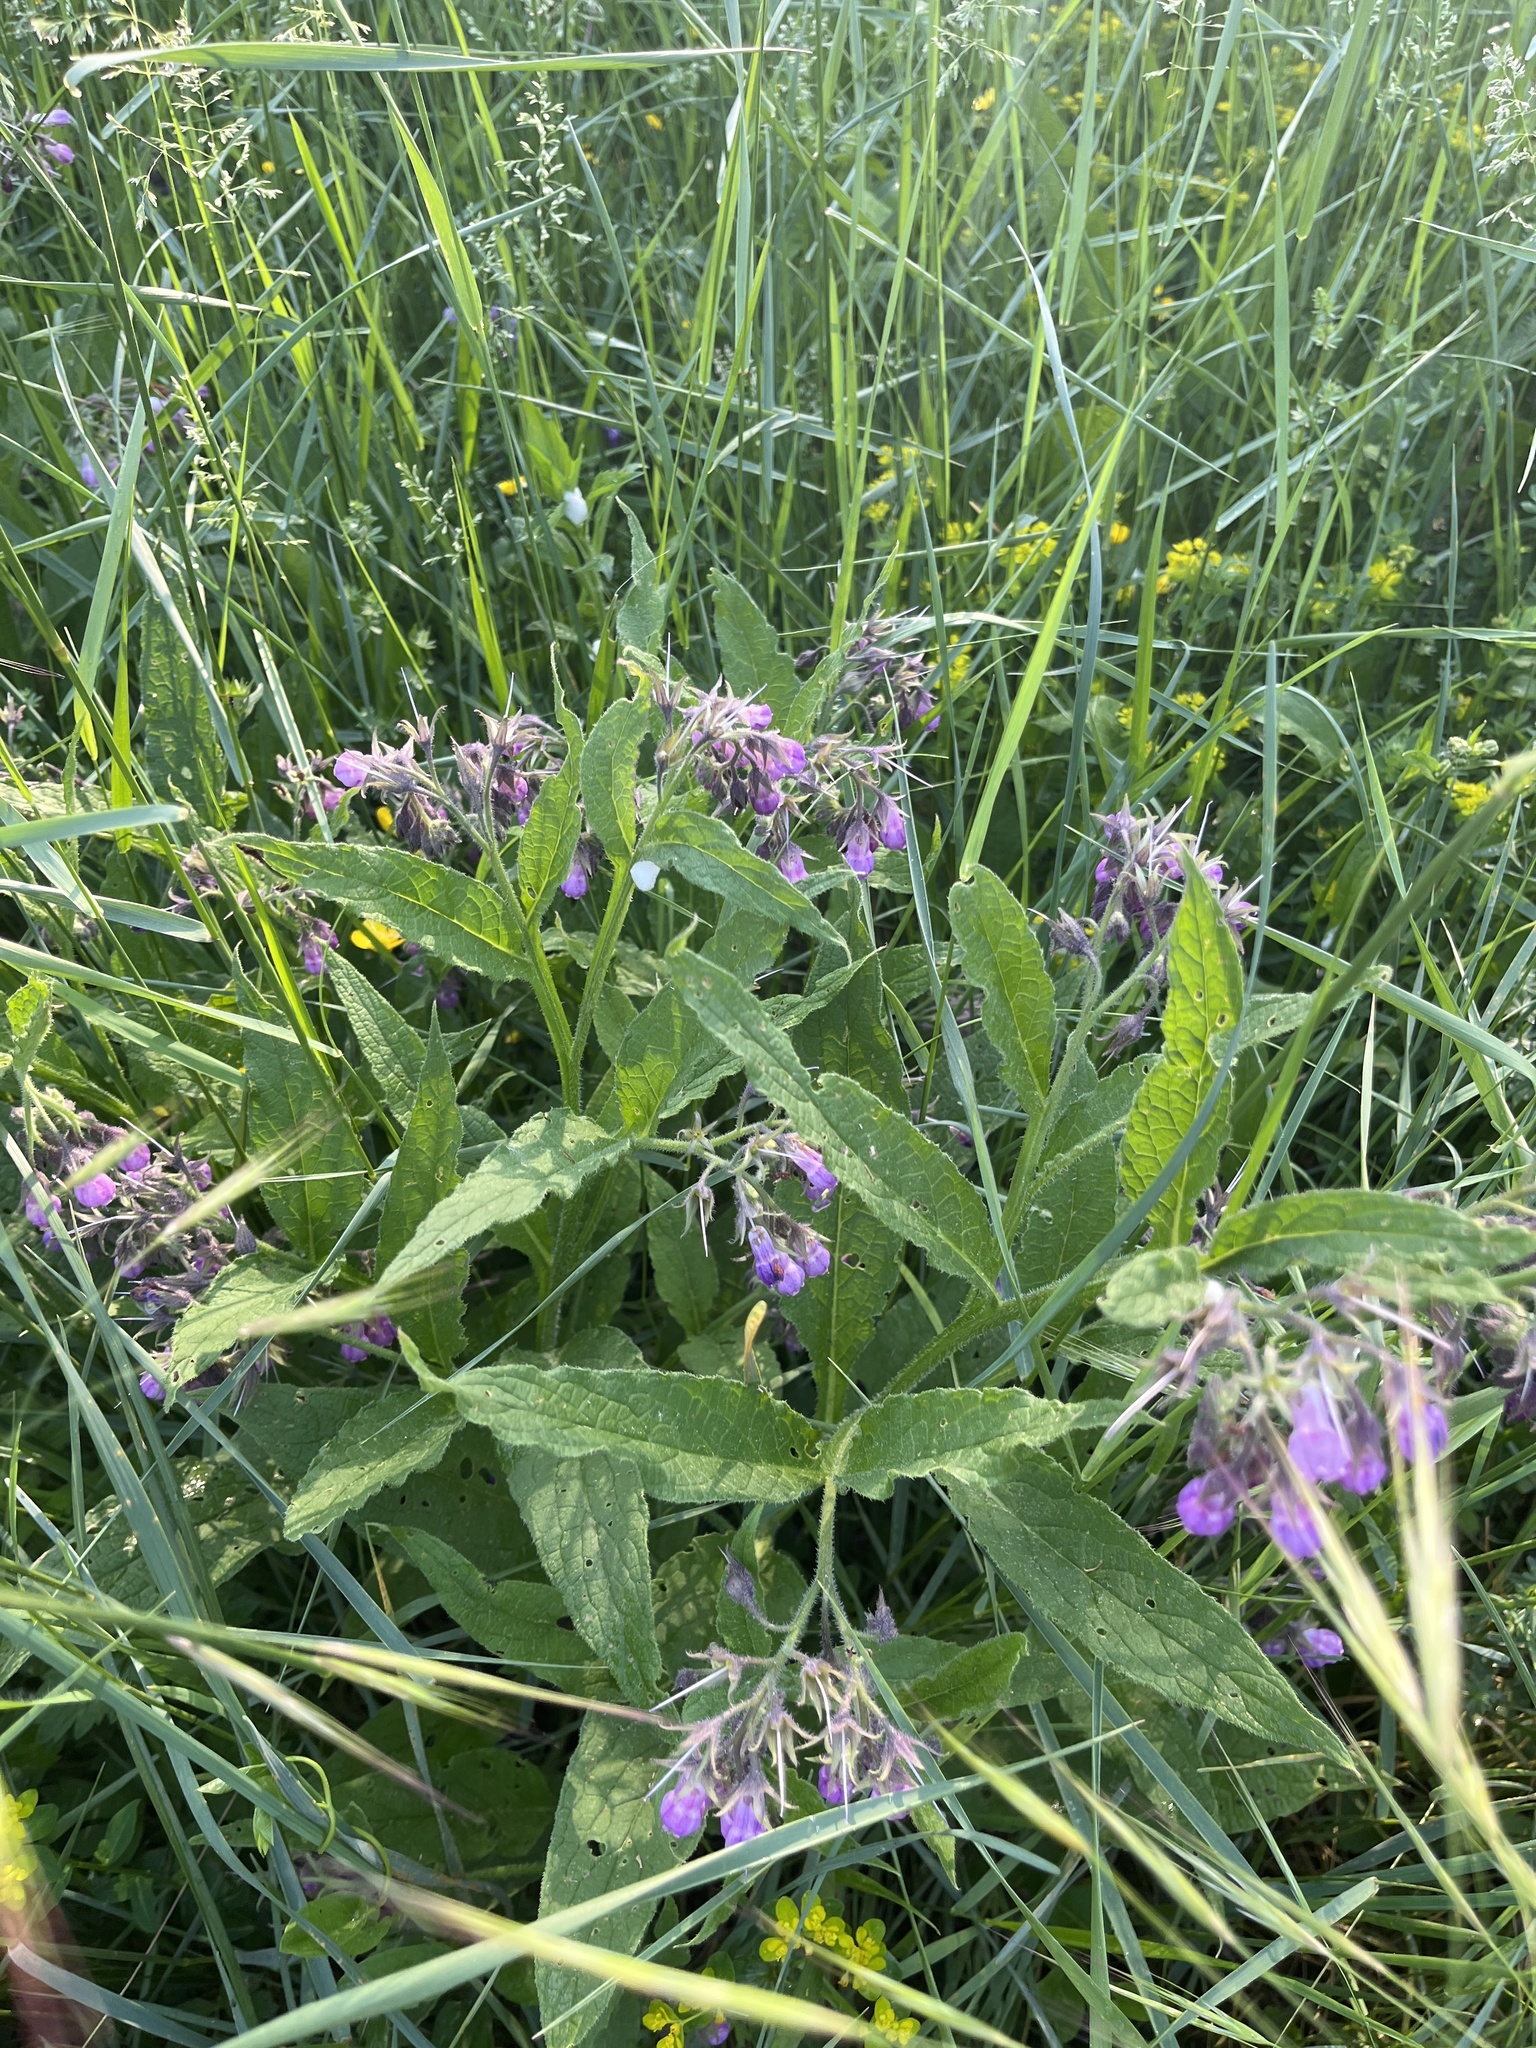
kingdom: Plantae
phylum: Tracheophyta
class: Magnoliopsida
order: Boraginales
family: Boraginaceae
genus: Symphytum
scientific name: Symphytum officinale
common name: Common comfrey
